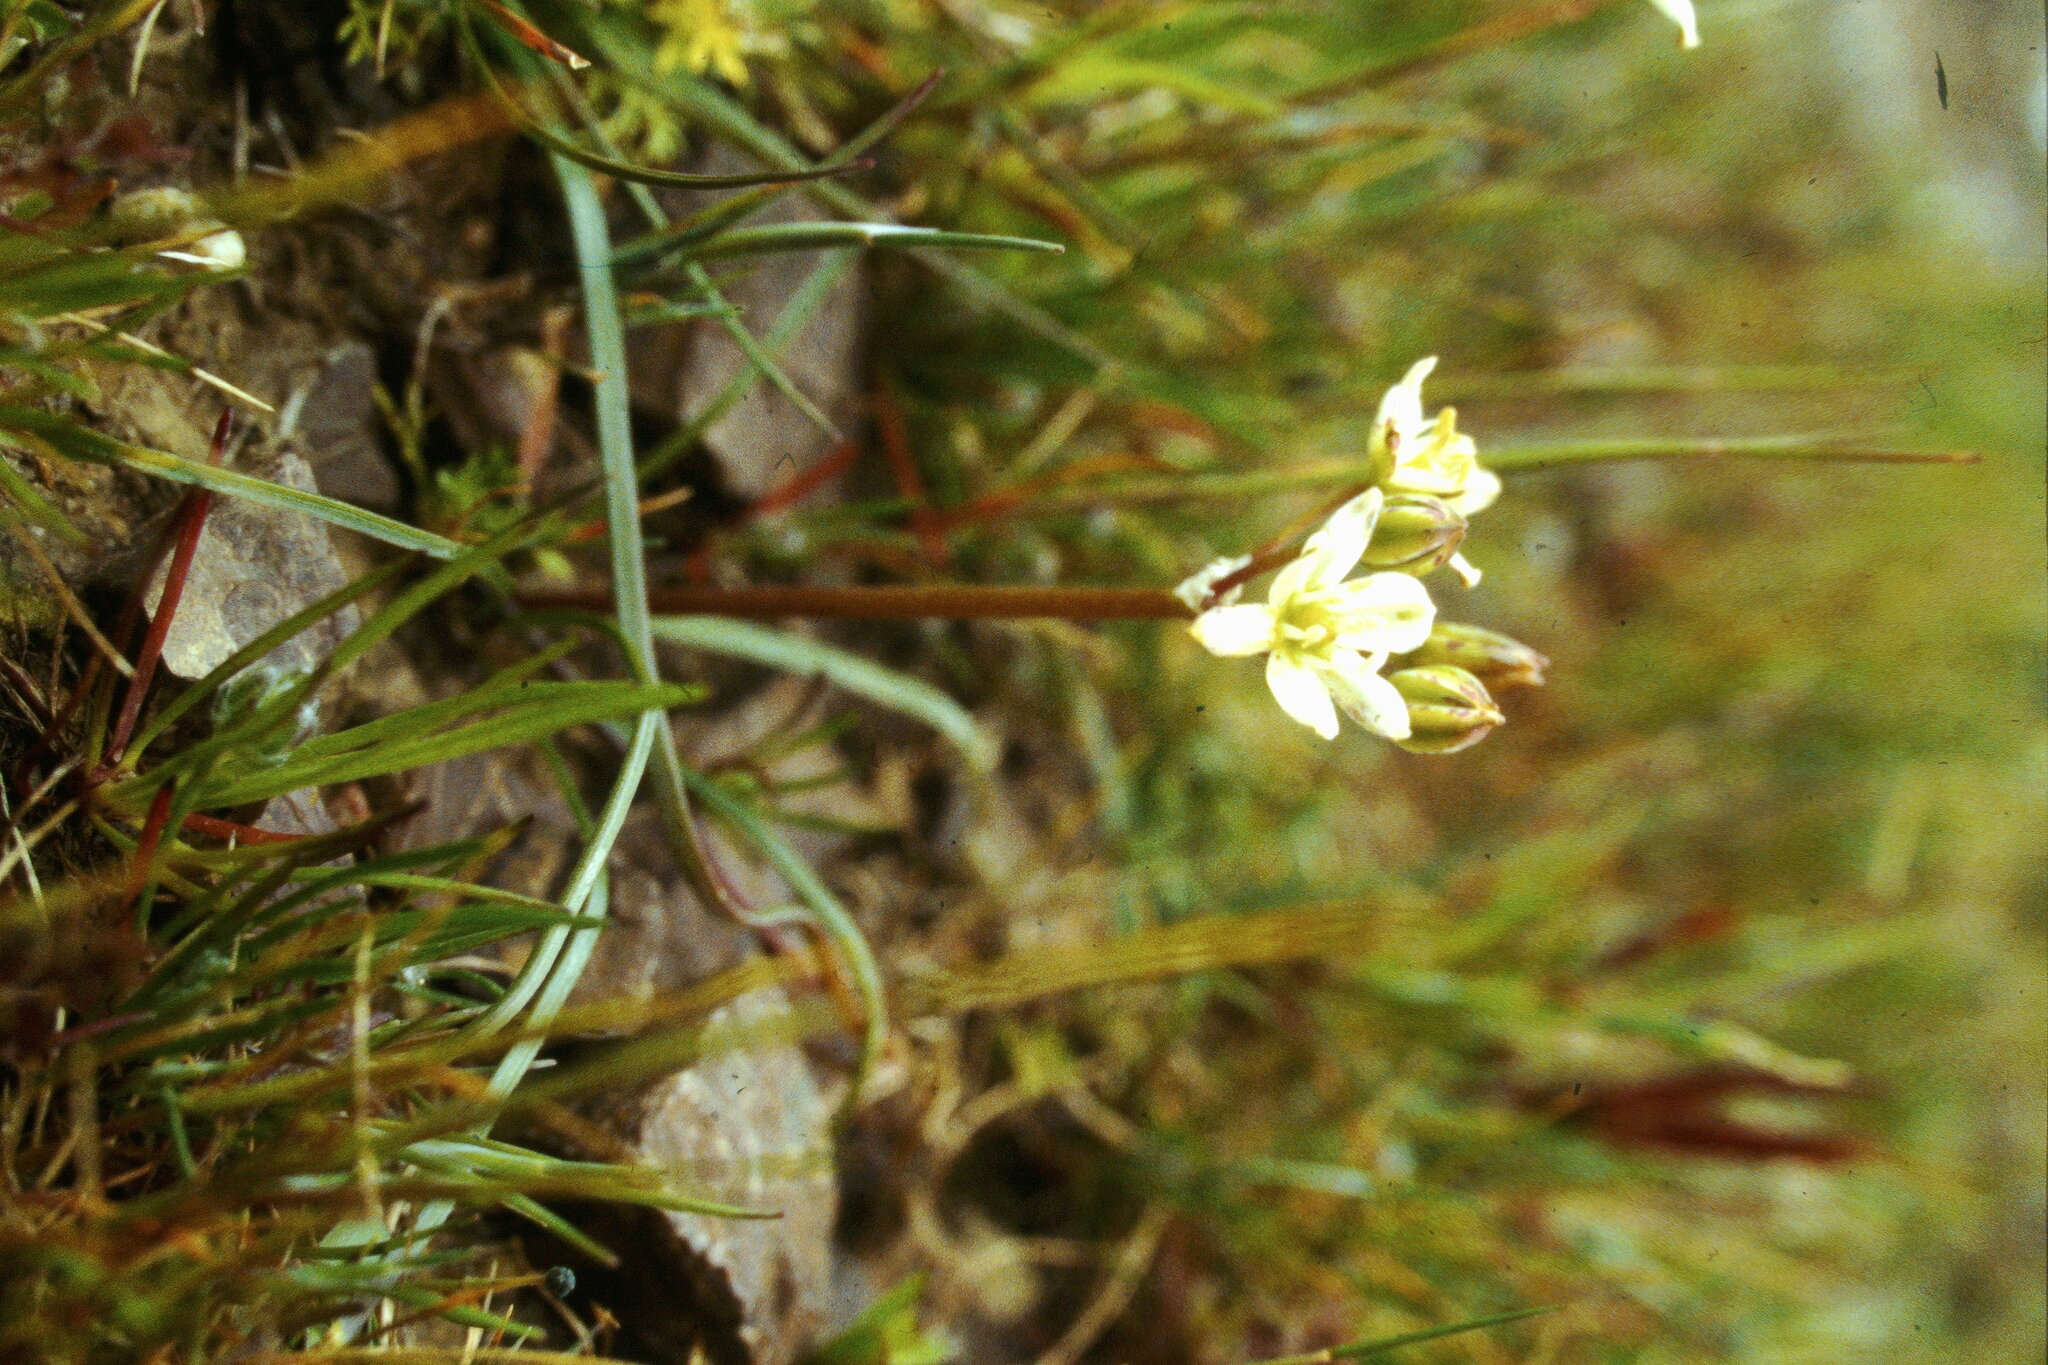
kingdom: Plantae
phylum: Tracheophyta
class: Liliopsida
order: Asparagales
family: Asparagaceae
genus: Muilla
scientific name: Muilla maritima
